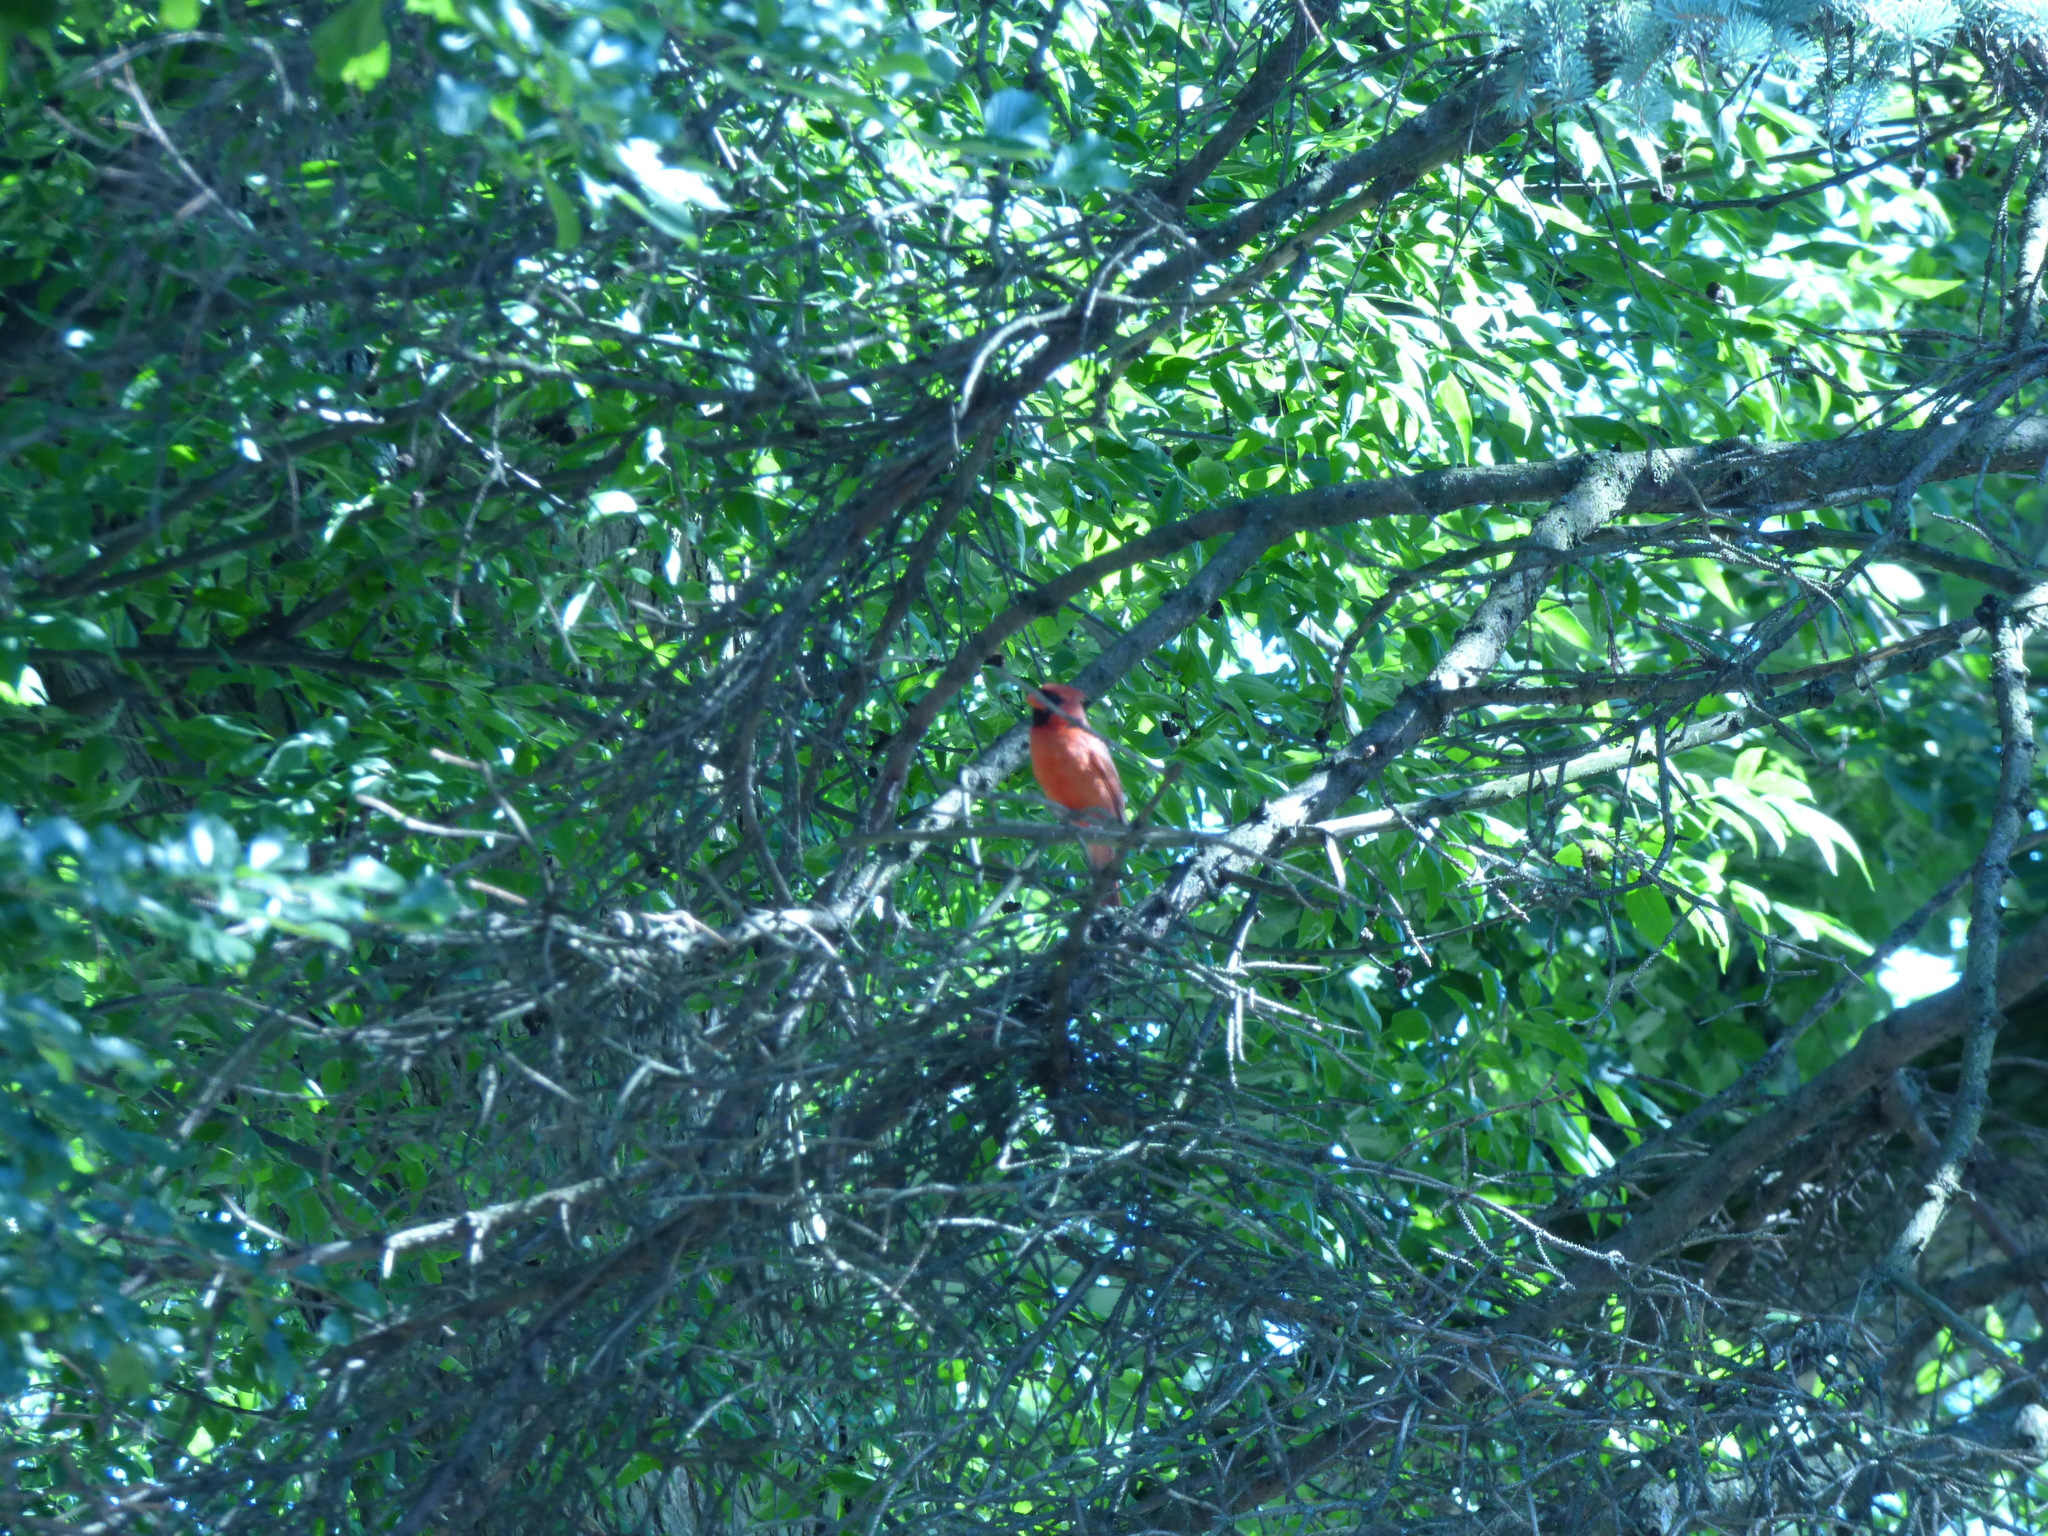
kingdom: Animalia
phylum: Chordata
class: Aves
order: Passeriformes
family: Cardinalidae
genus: Cardinalis
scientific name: Cardinalis cardinalis
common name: Northern cardinal
